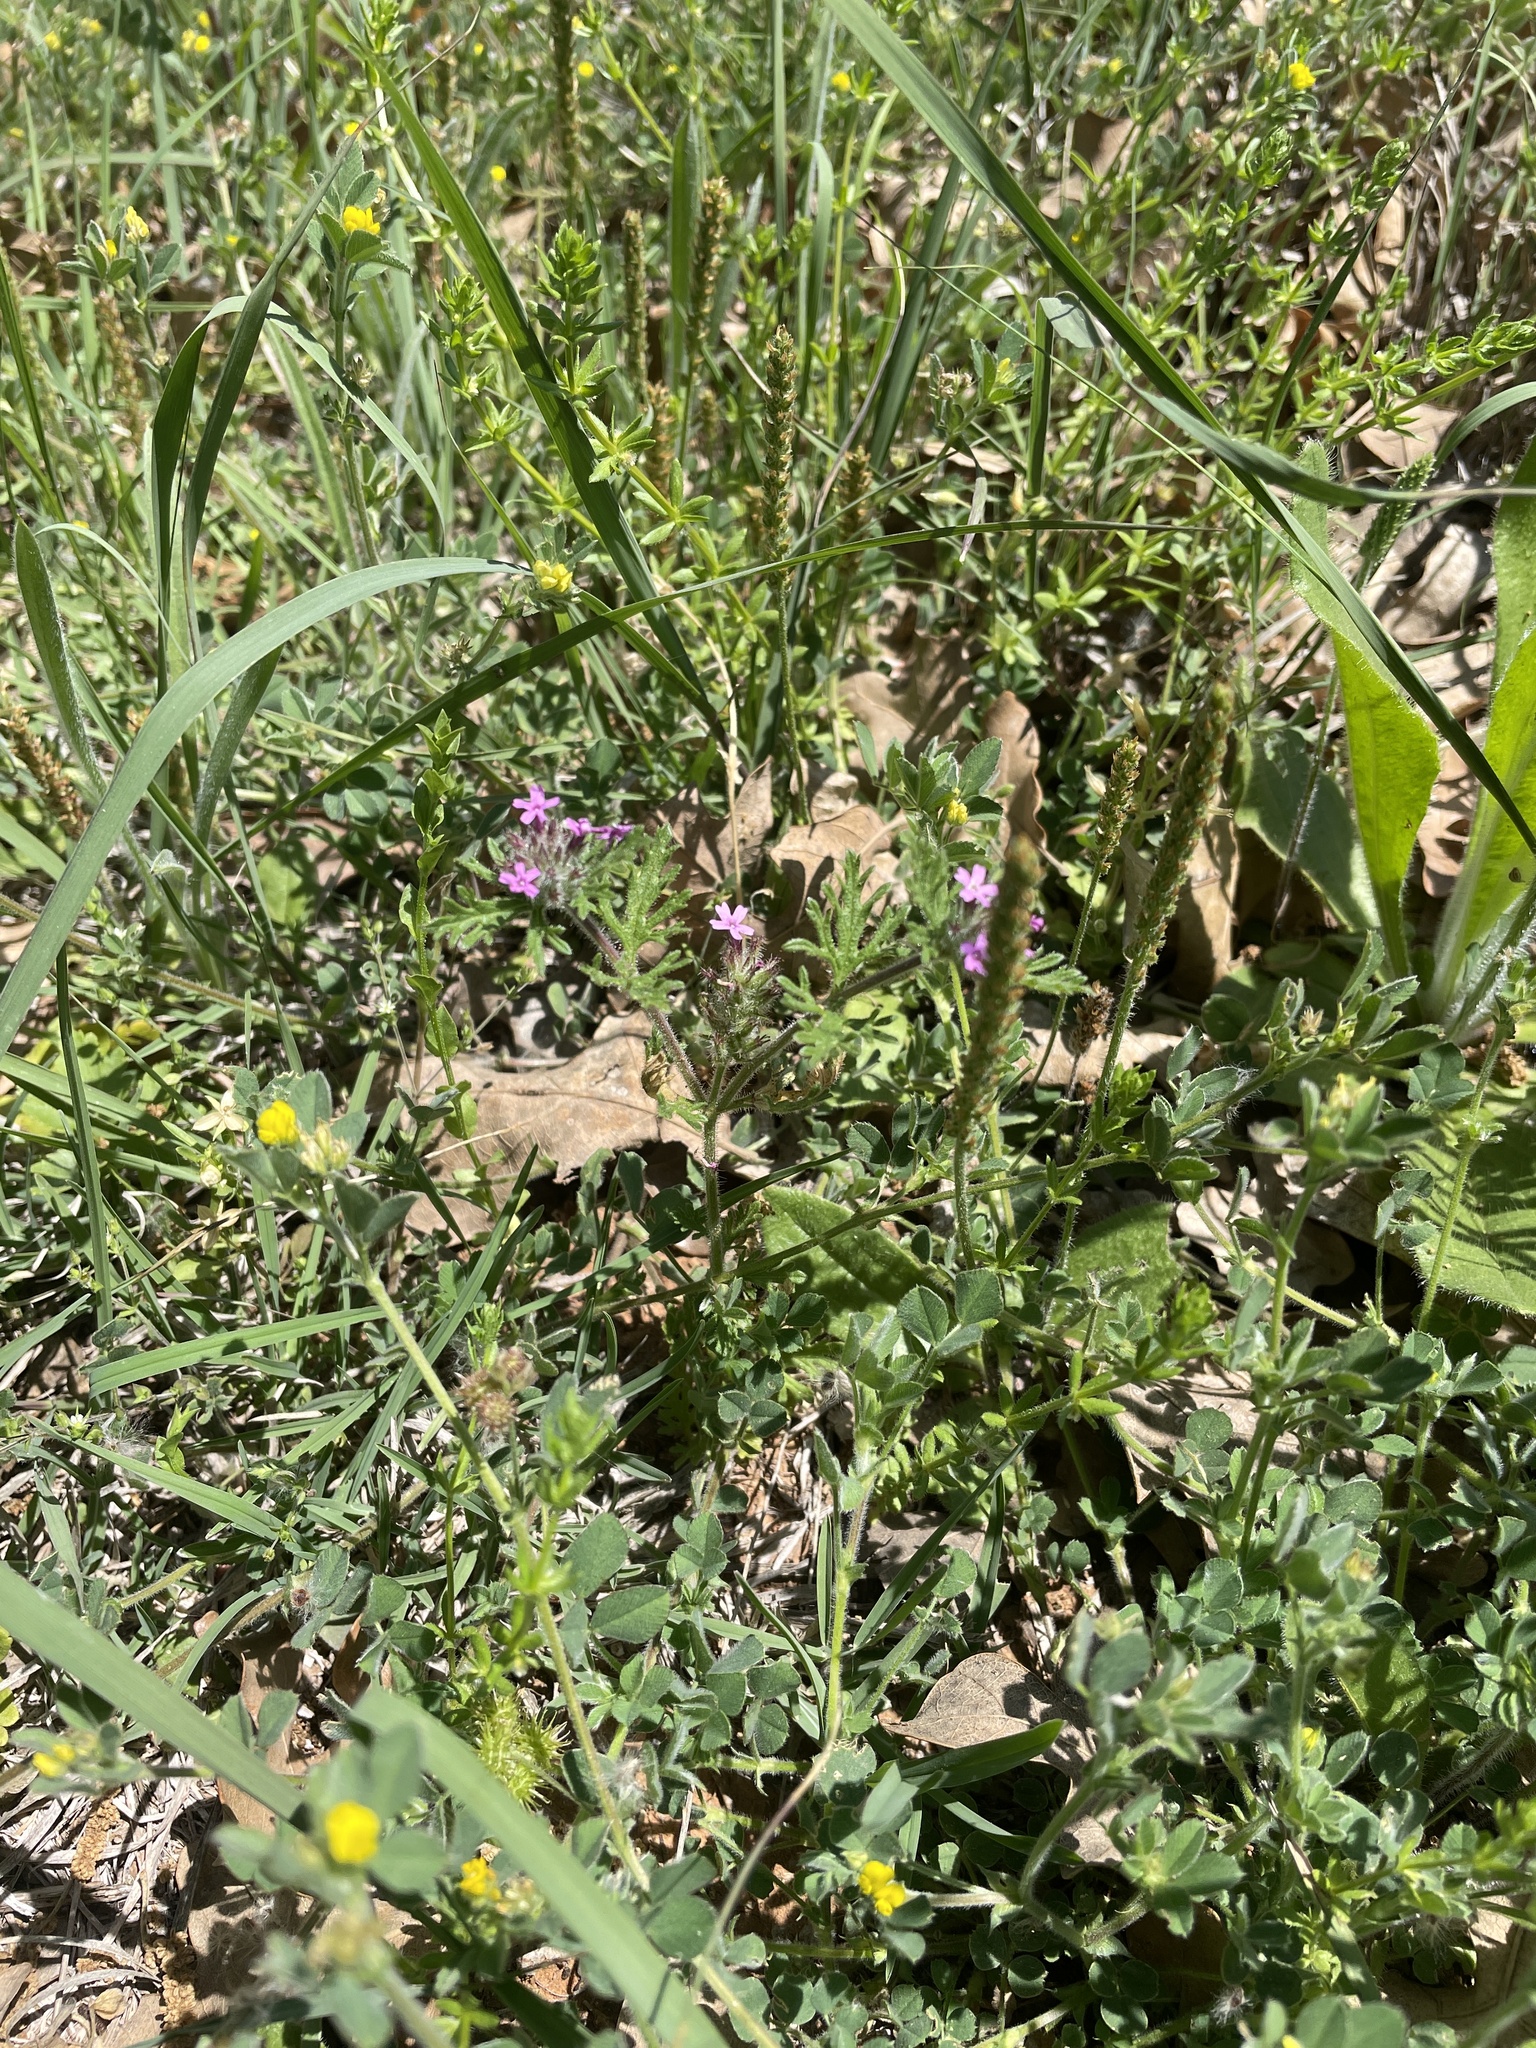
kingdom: Plantae
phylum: Tracheophyta
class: Magnoliopsida
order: Lamiales
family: Verbenaceae
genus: Verbena
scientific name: Verbena pumila
